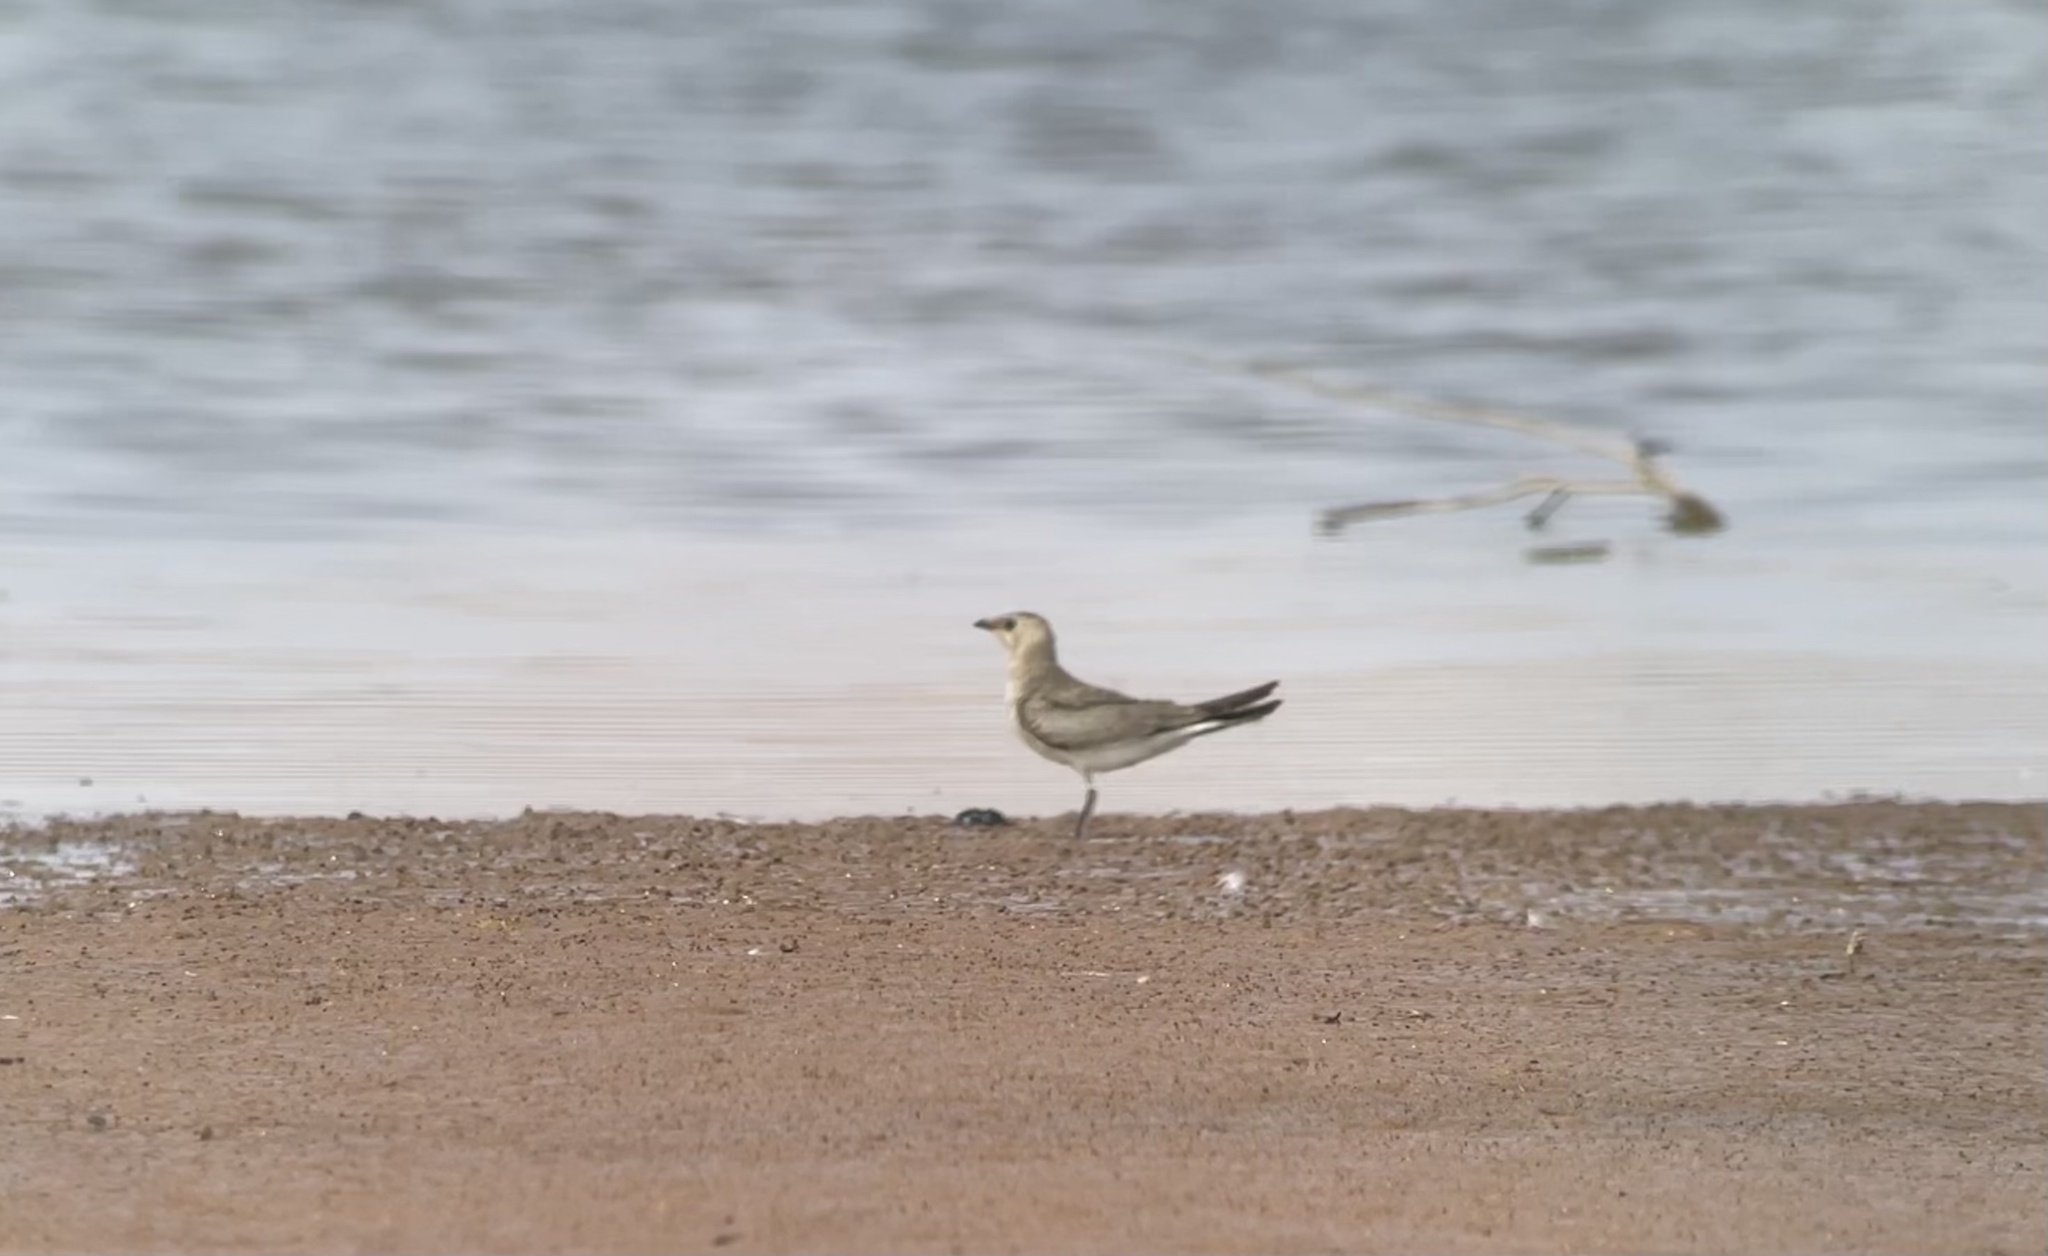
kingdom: Animalia
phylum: Chordata
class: Aves
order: Charadriiformes
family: Glareolidae
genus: Glareola
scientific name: Glareola pratincola
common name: Collared pratincole
